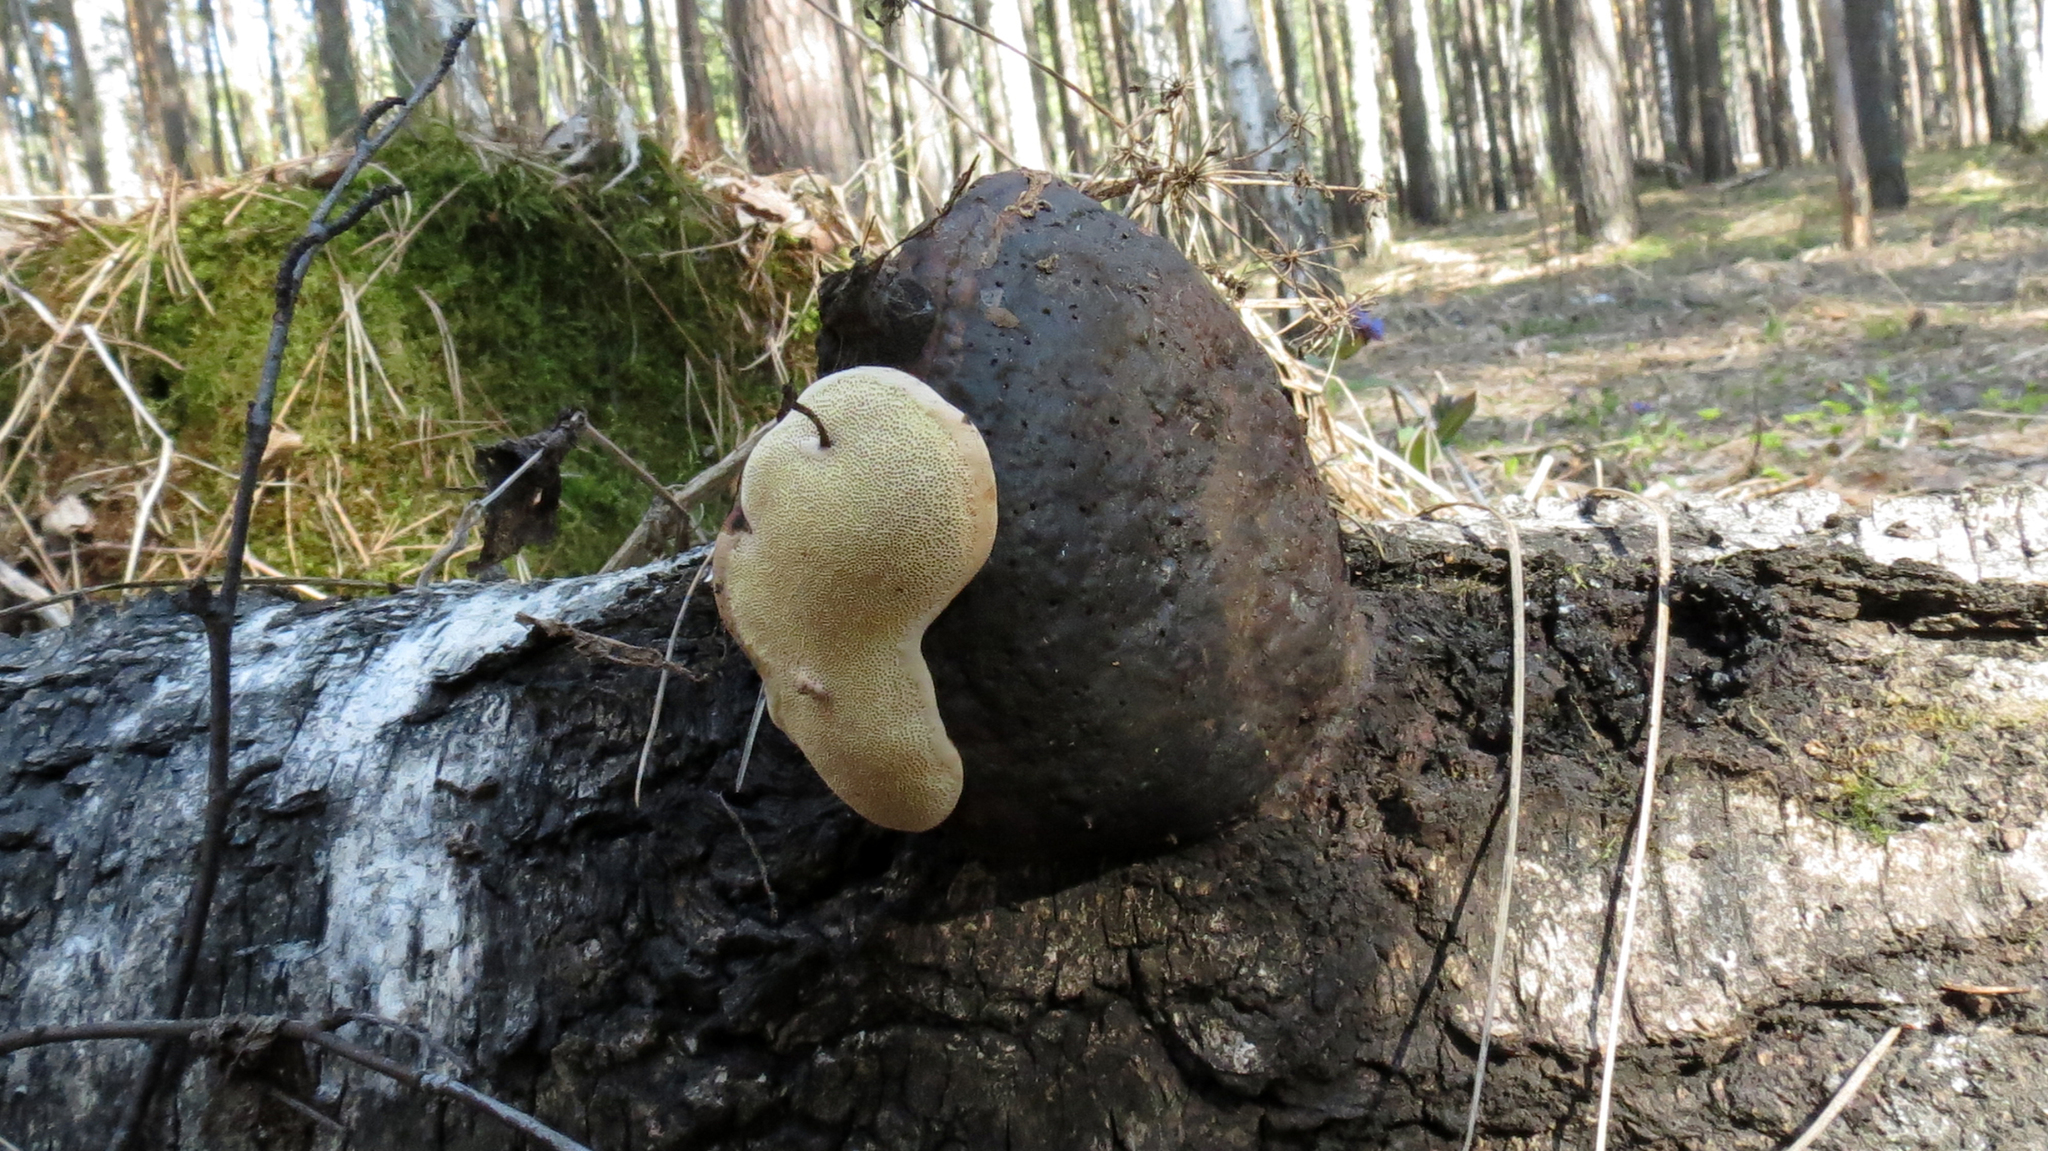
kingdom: Fungi
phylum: Basidiomycota
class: Agaricomycetes
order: Polyporales
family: Fomitopsidaceae
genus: Fomitopsis
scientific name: Fomitopsis pinicola
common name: Red-belted bracket
